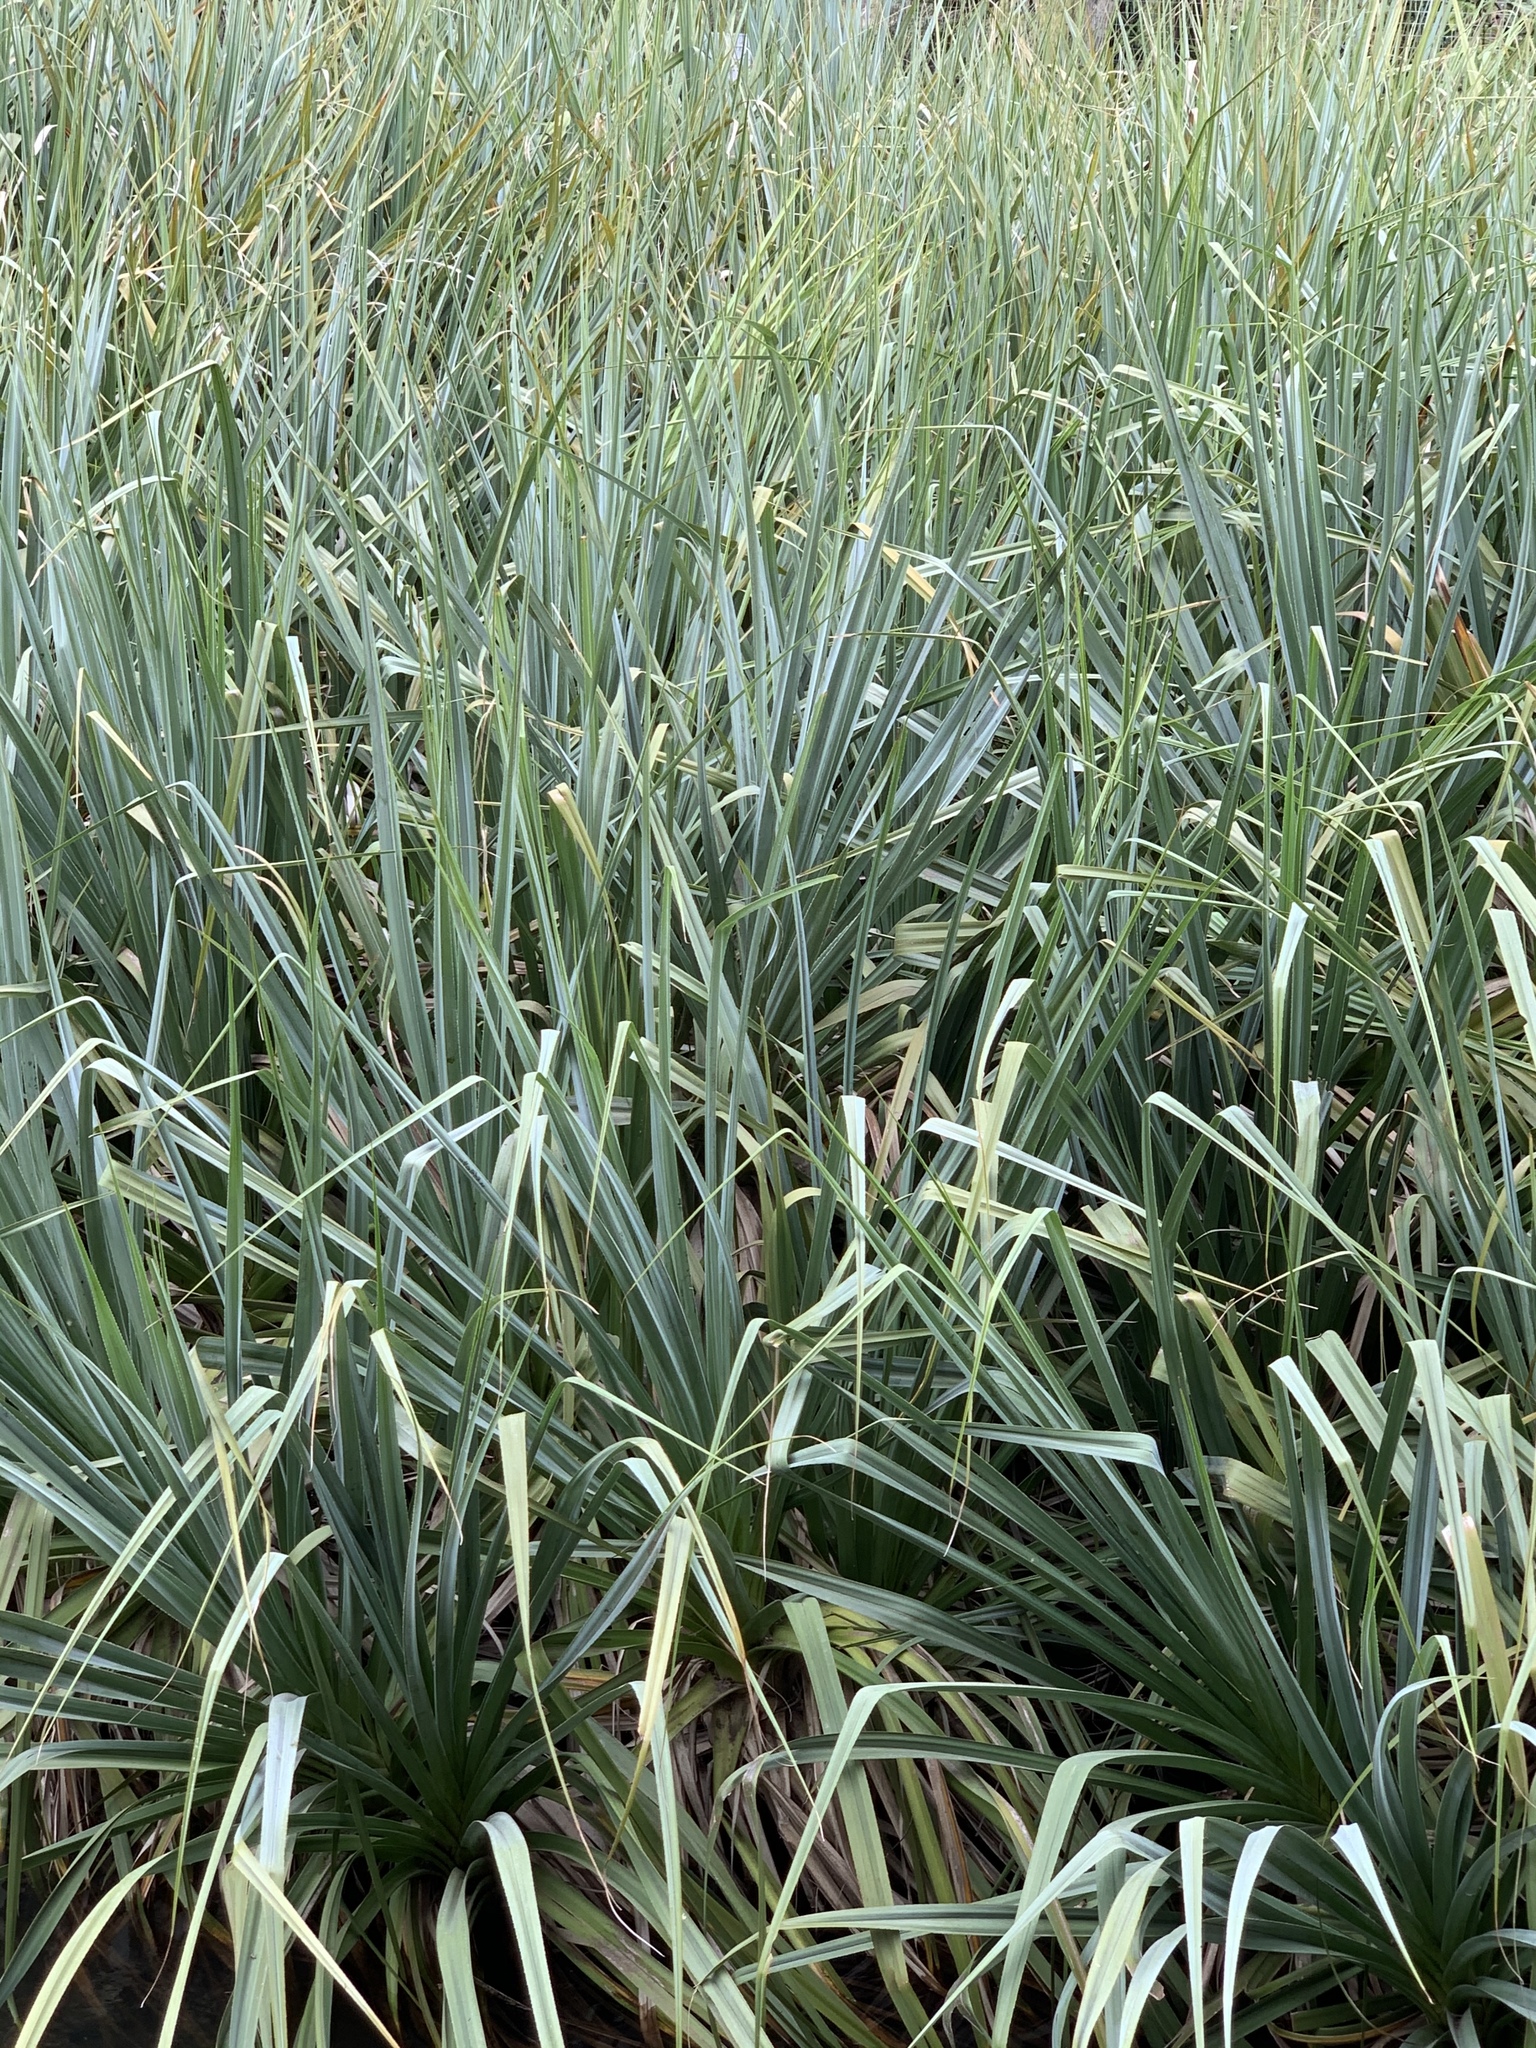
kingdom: Plantae
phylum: Tracheophyta
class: Liliopsida
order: Poales
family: Thurniaceae
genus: Prionium
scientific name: Prionium serratum
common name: Palmiet
